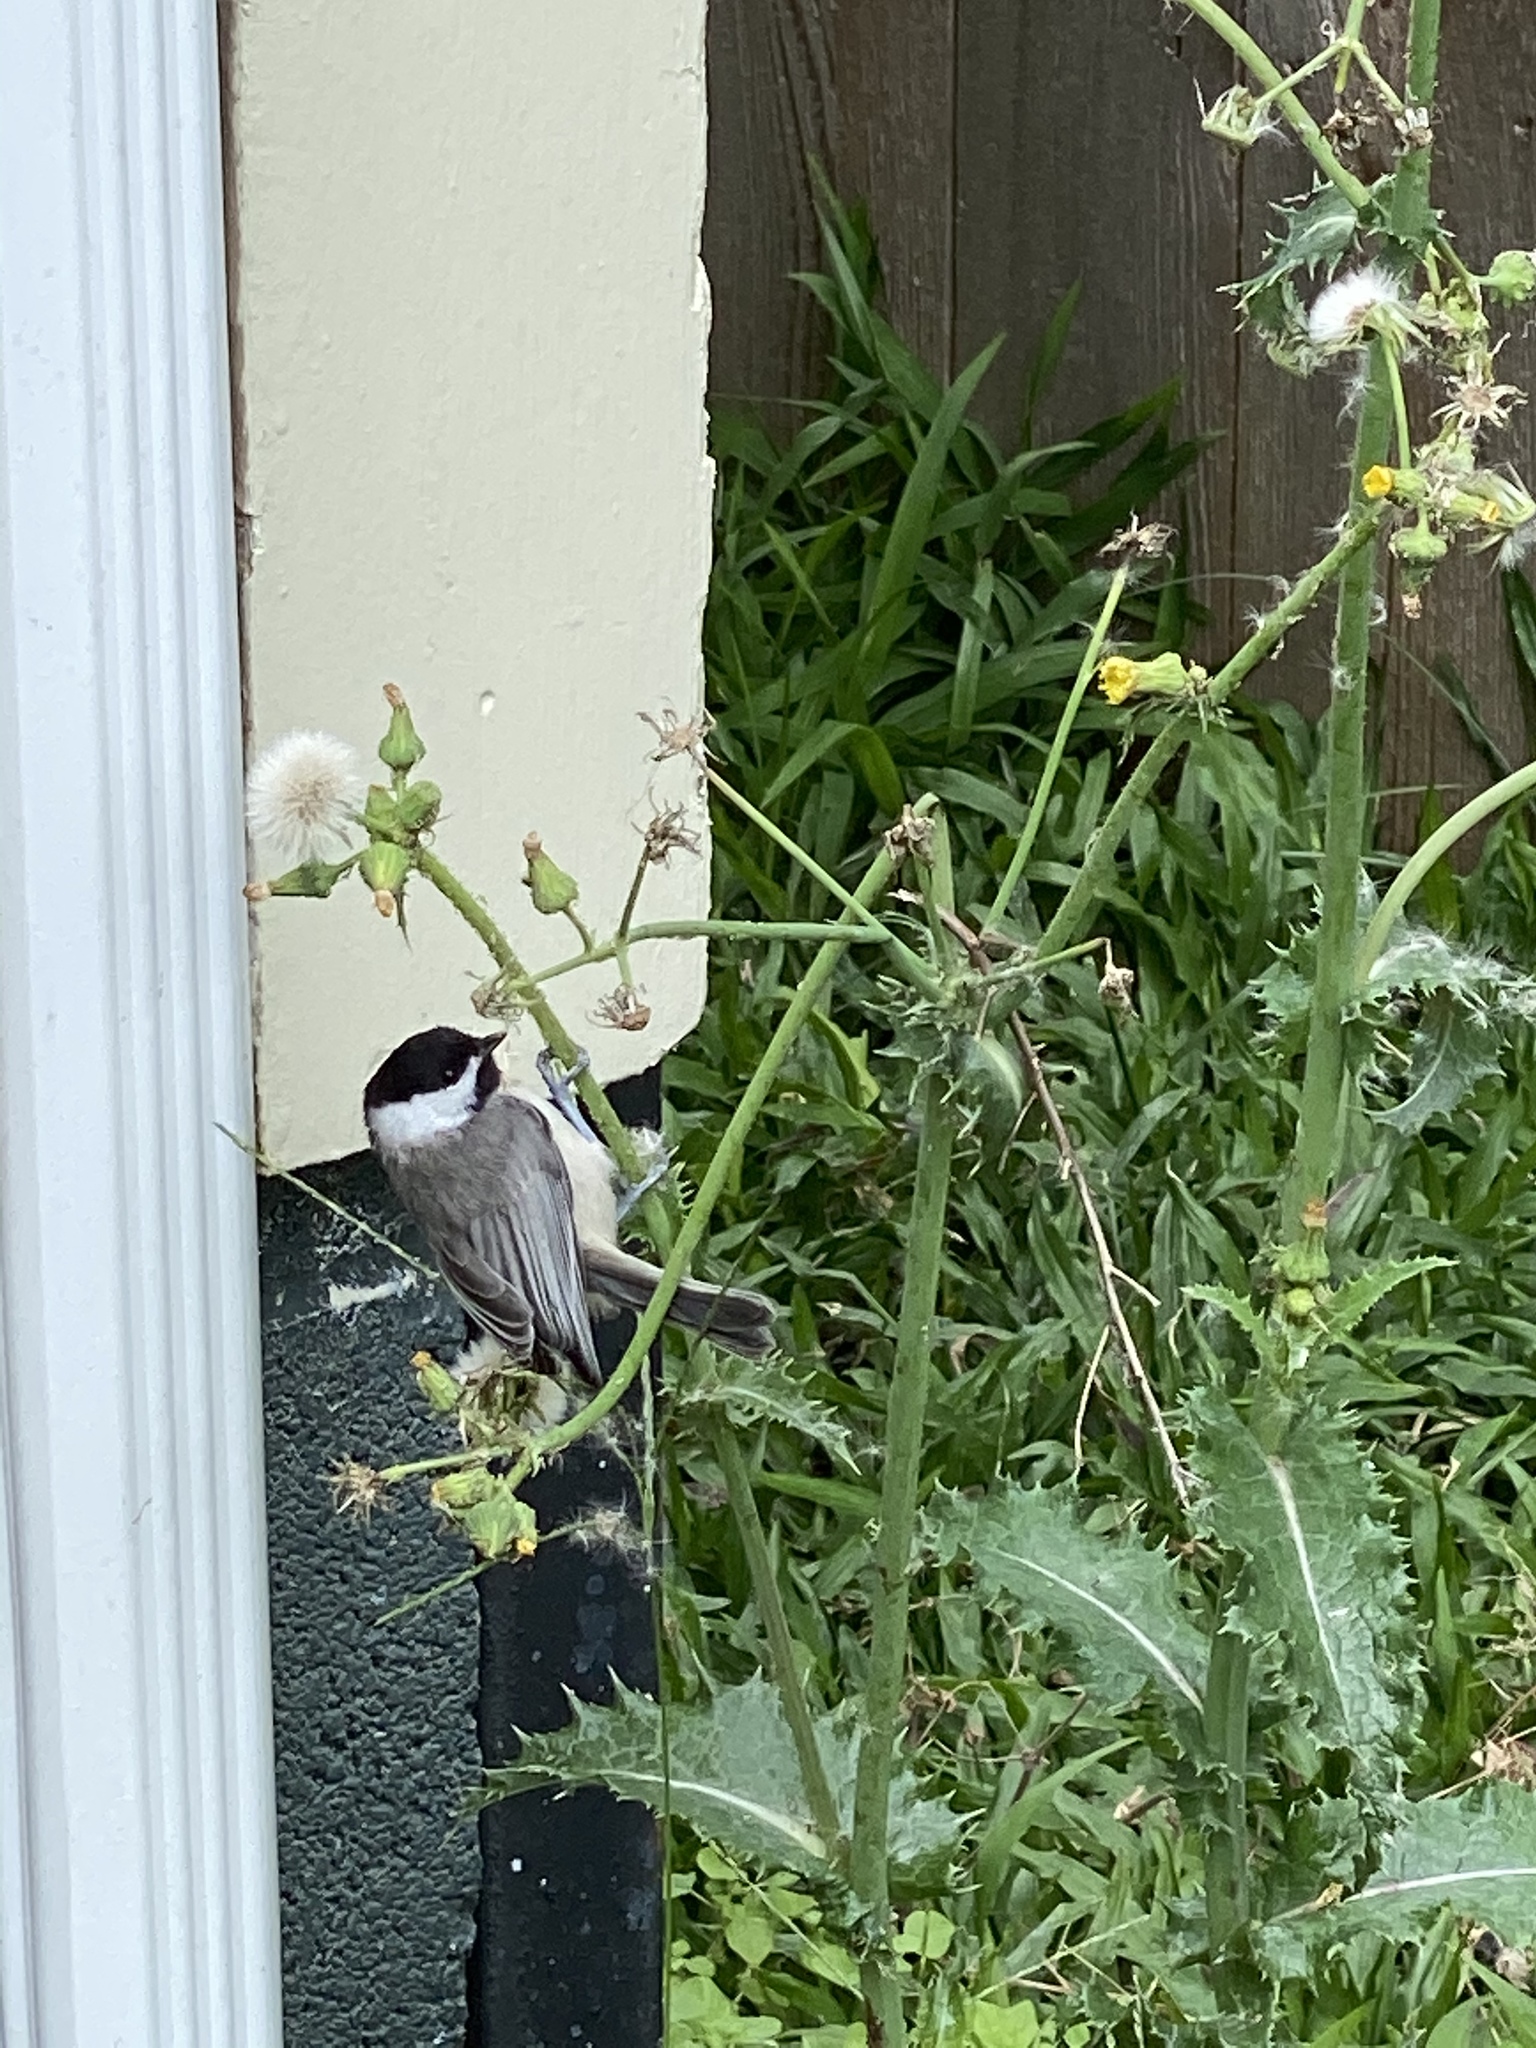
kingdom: Animalia
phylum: Chordata
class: Aves
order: Passeriformes
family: Paridae
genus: Poecile
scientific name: Poecile carolinensis
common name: Carolina chickadee
